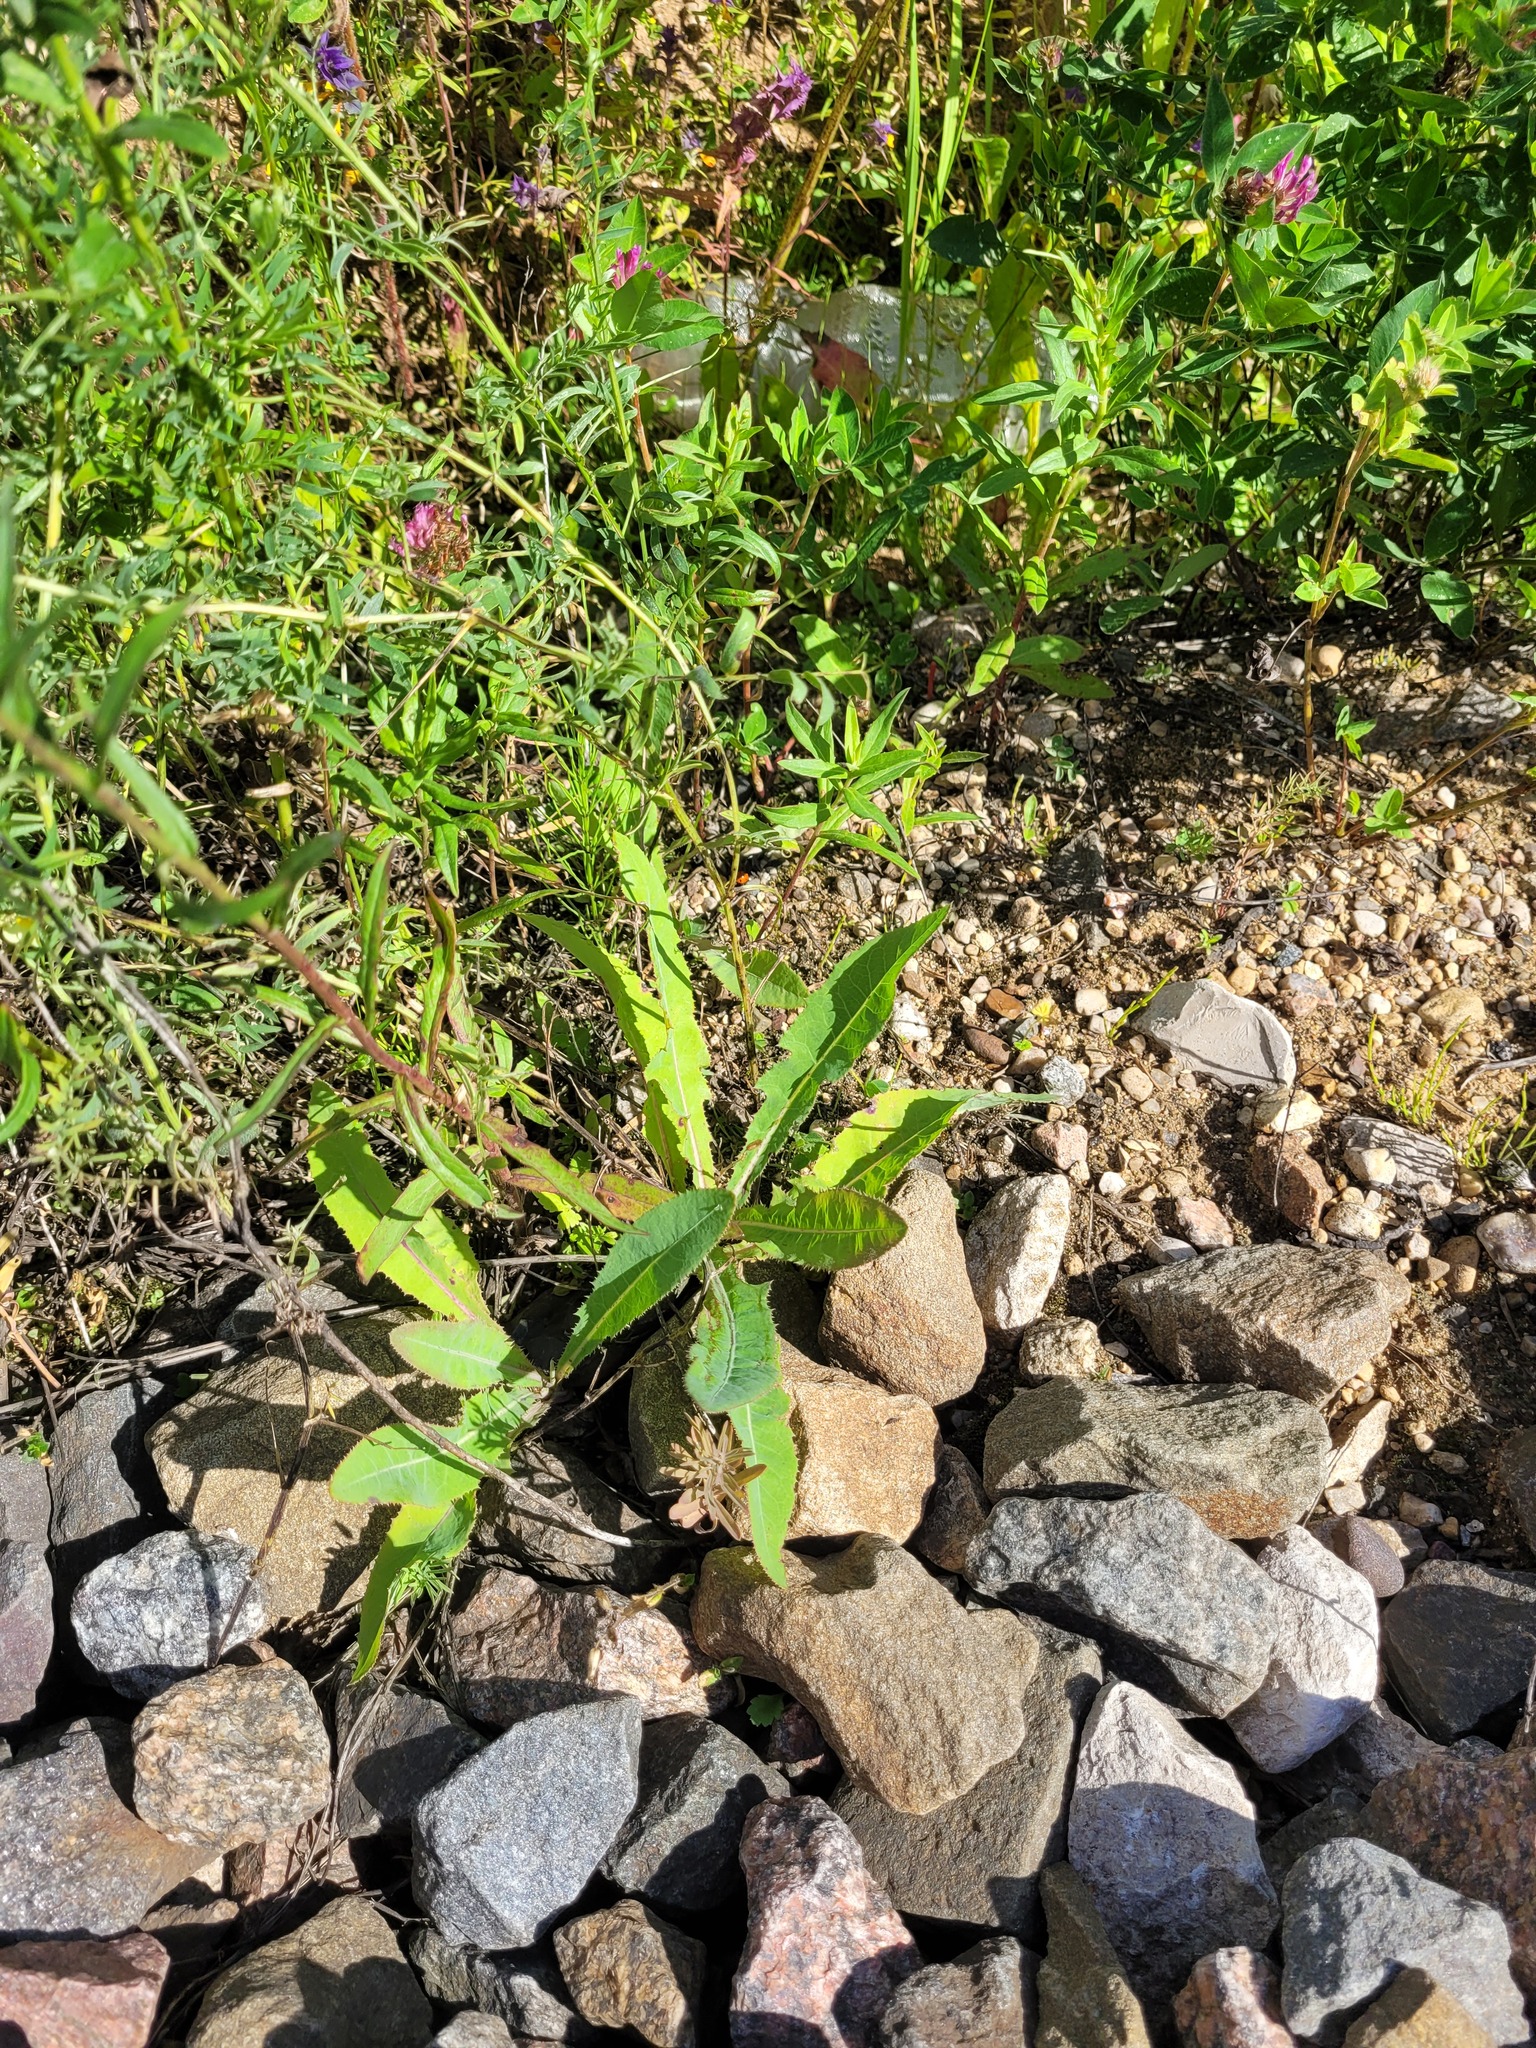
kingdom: Plantae
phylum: Tracheophyta
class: Magnoliopsida
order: Asterales
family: Asteraceae
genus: Sonchus
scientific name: Sonchus arvensis
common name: Perennial sow-thistle
